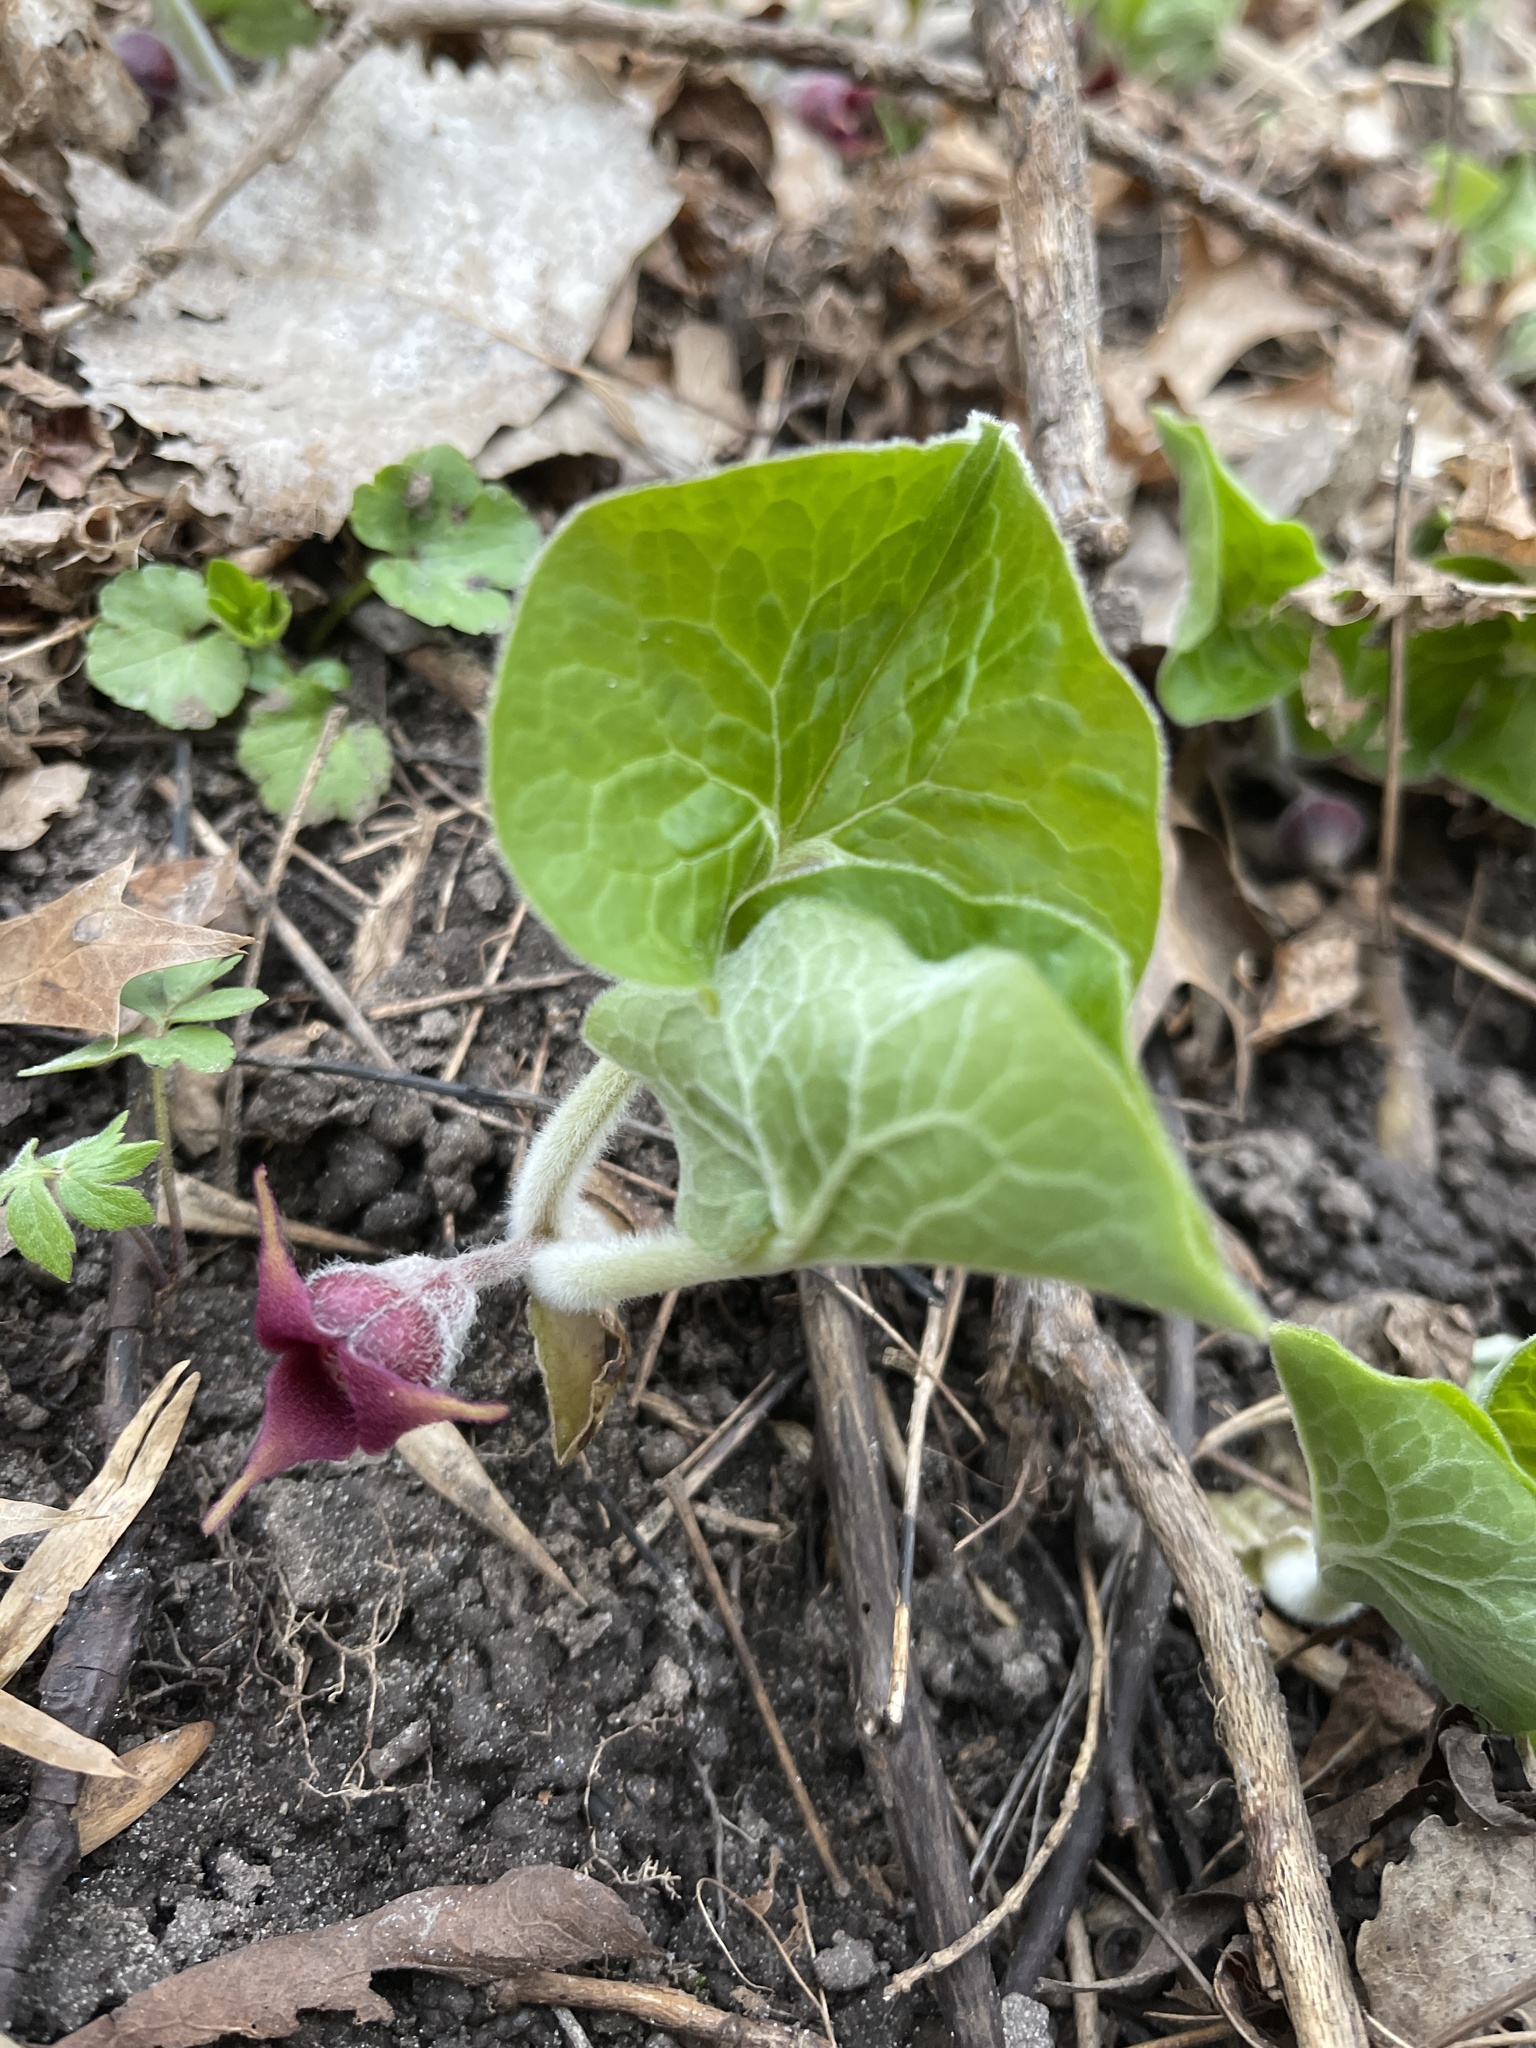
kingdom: Plantae
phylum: Tracheophyta
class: Magnoliopsida
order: Piperales
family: Aristolochiaceae
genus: Asarum
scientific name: Asarum canadense
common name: Wild ginger
